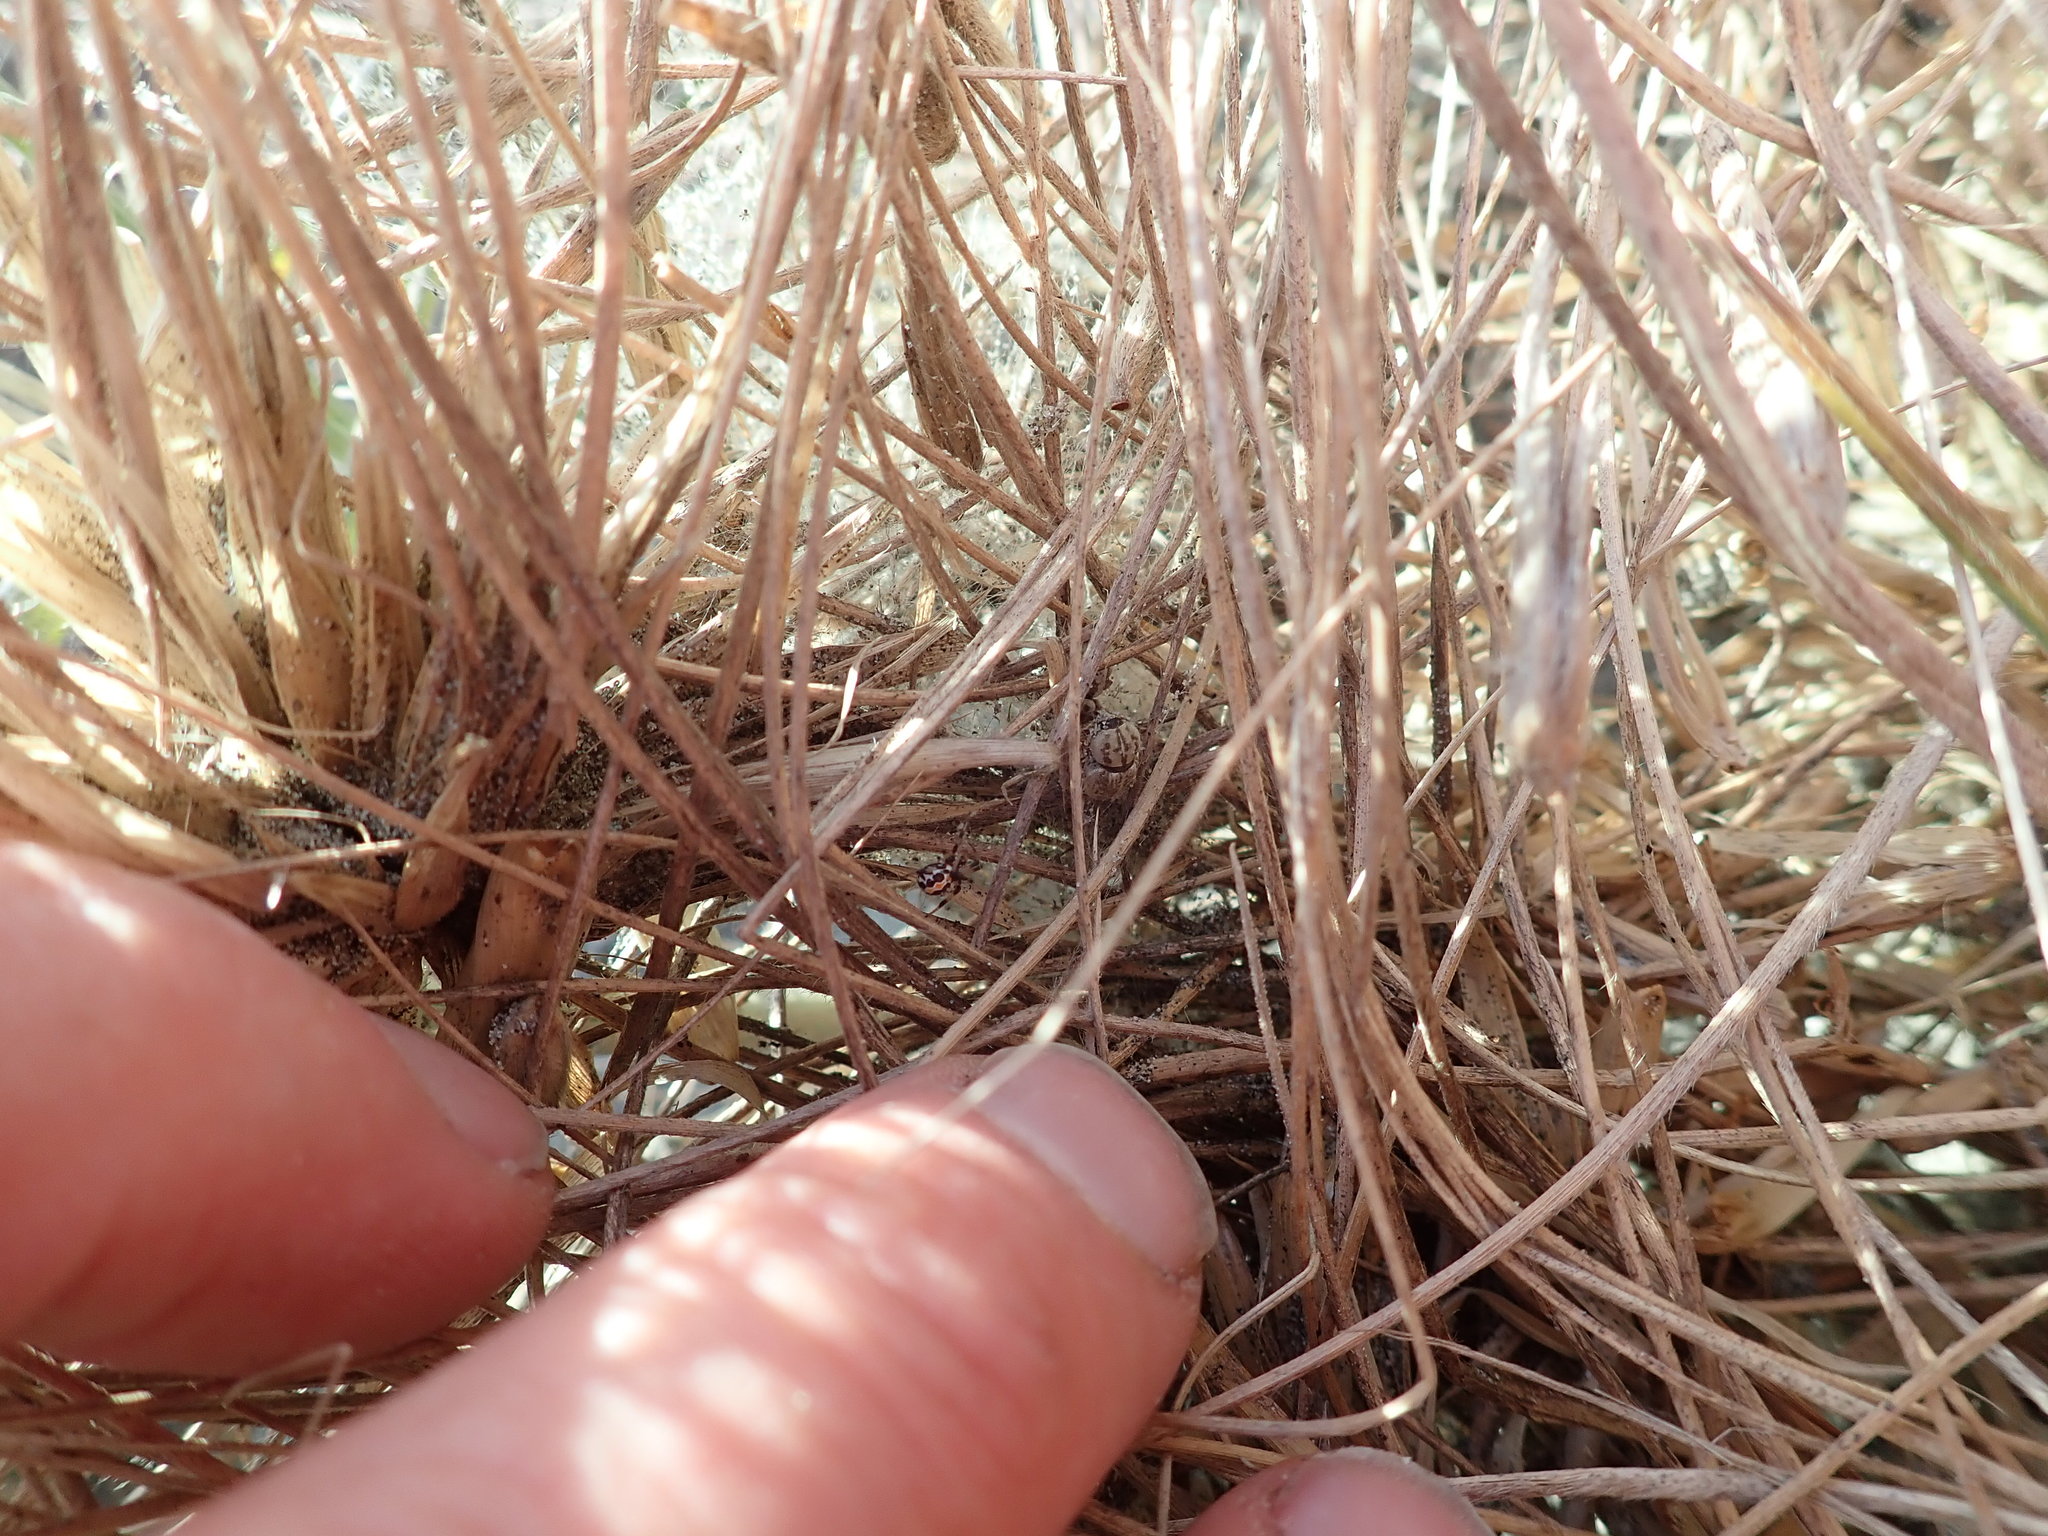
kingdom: Animalia
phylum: Arthropoda
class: Arachnida
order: Araneae
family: Theridiidae
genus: Latrodectus
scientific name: Latrodectus katipo
